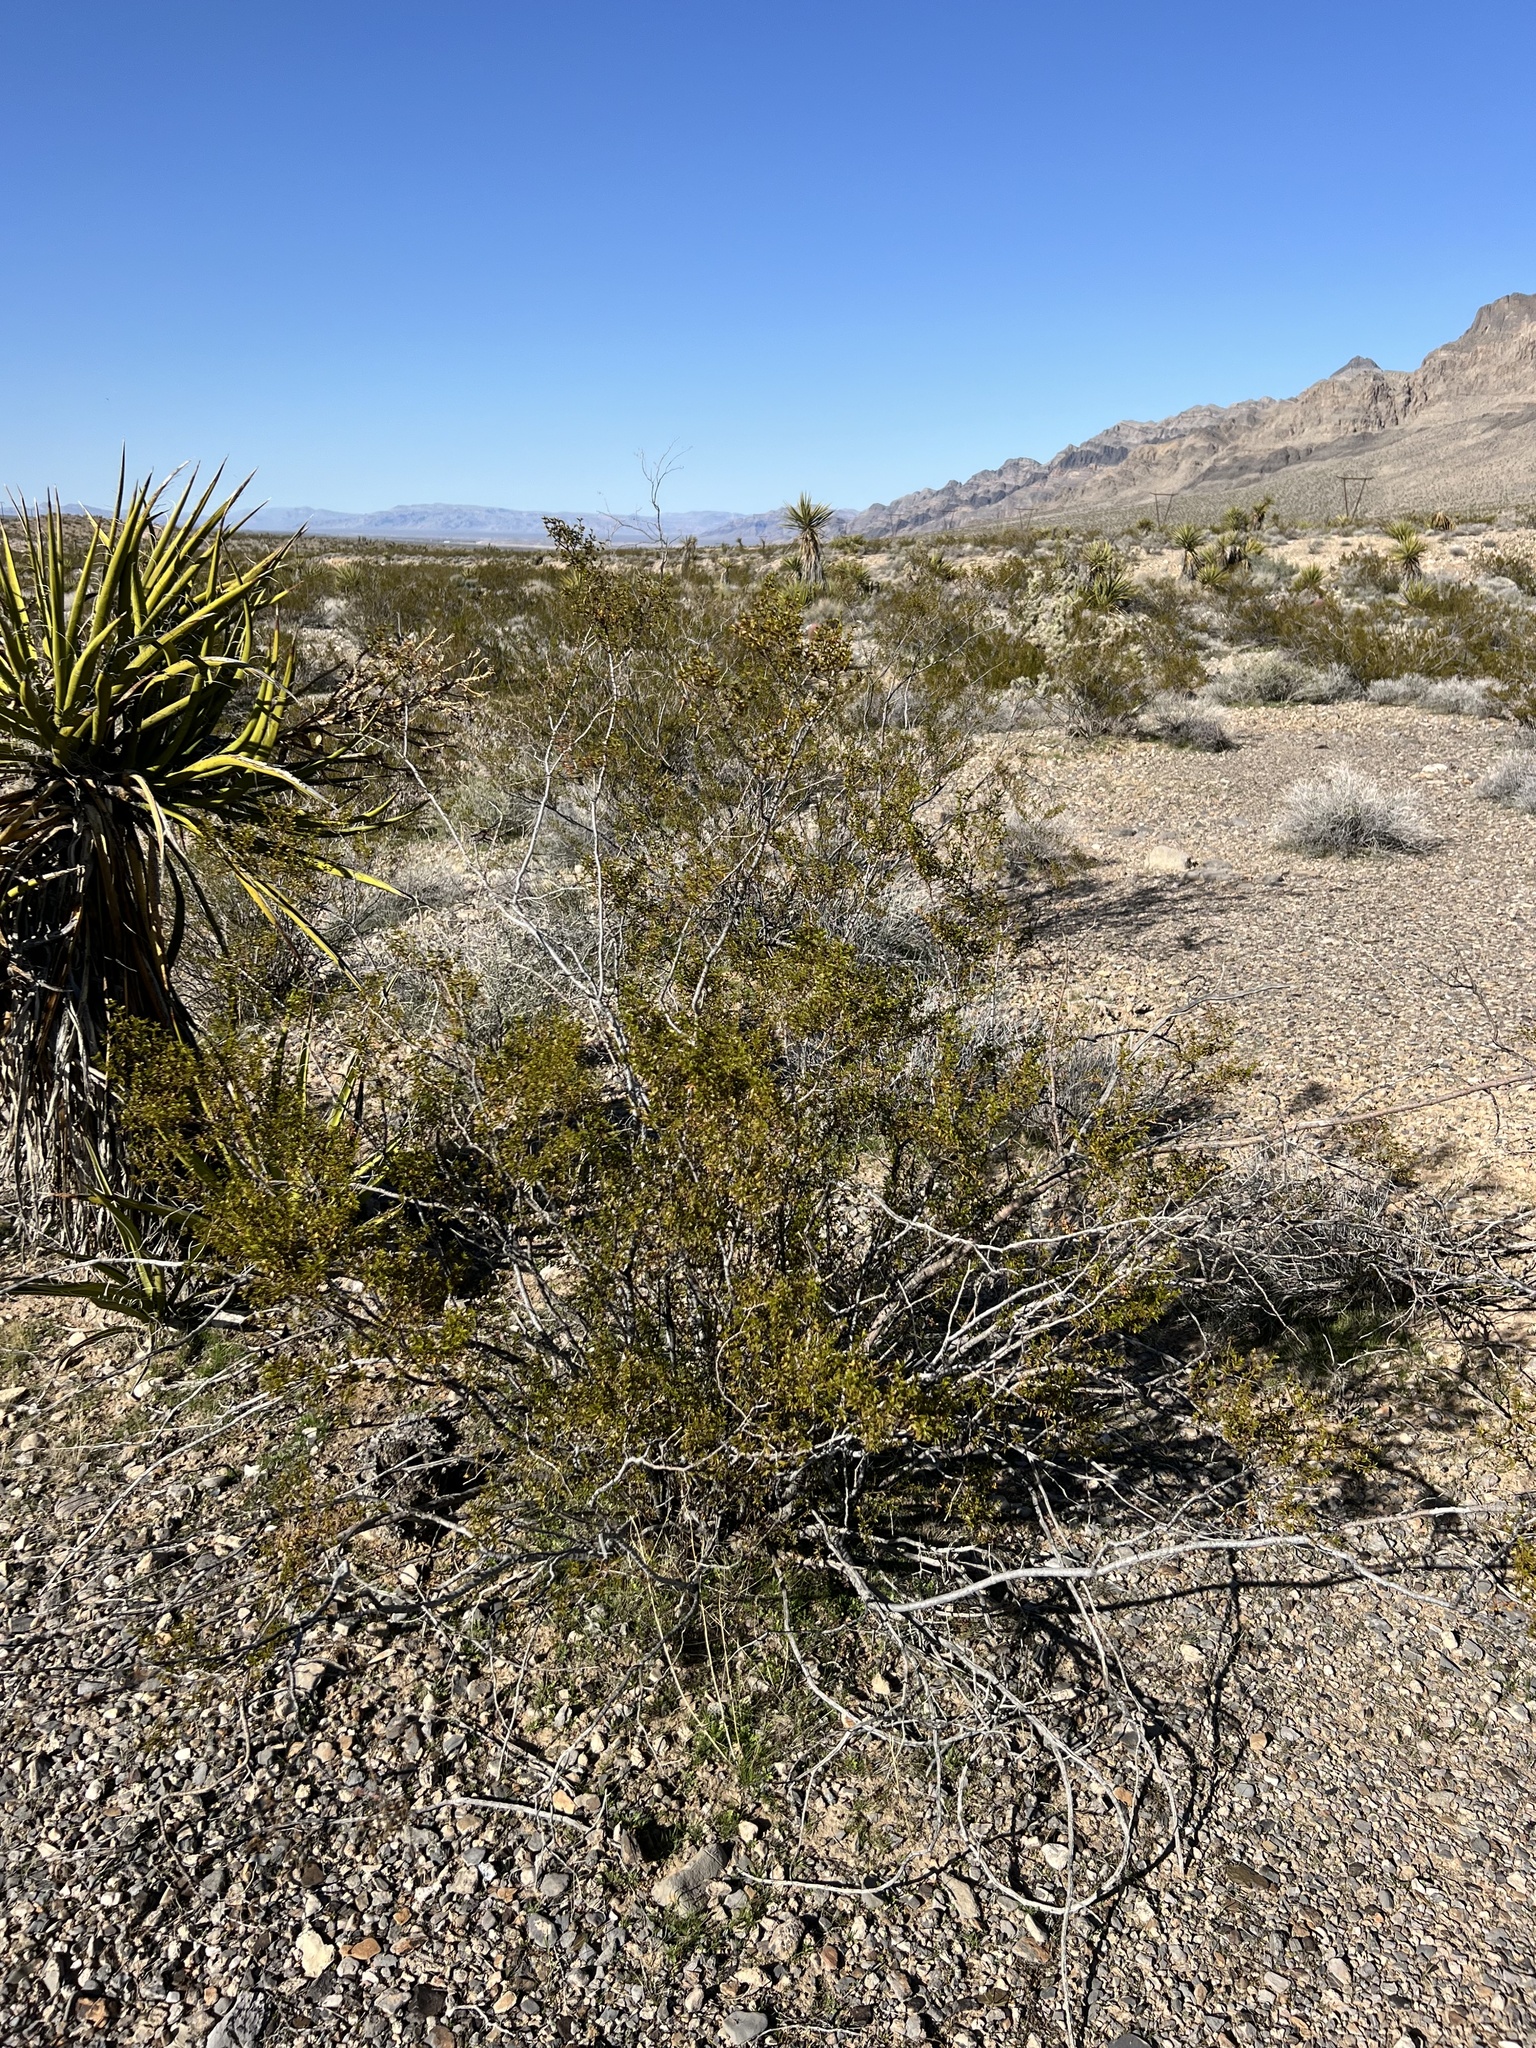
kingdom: Plantae
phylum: Tracheophyta
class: Magnoliopsida
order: Zygophyllales
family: Zygophyllaceae
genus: Larrea
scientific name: Larrea tridentata
